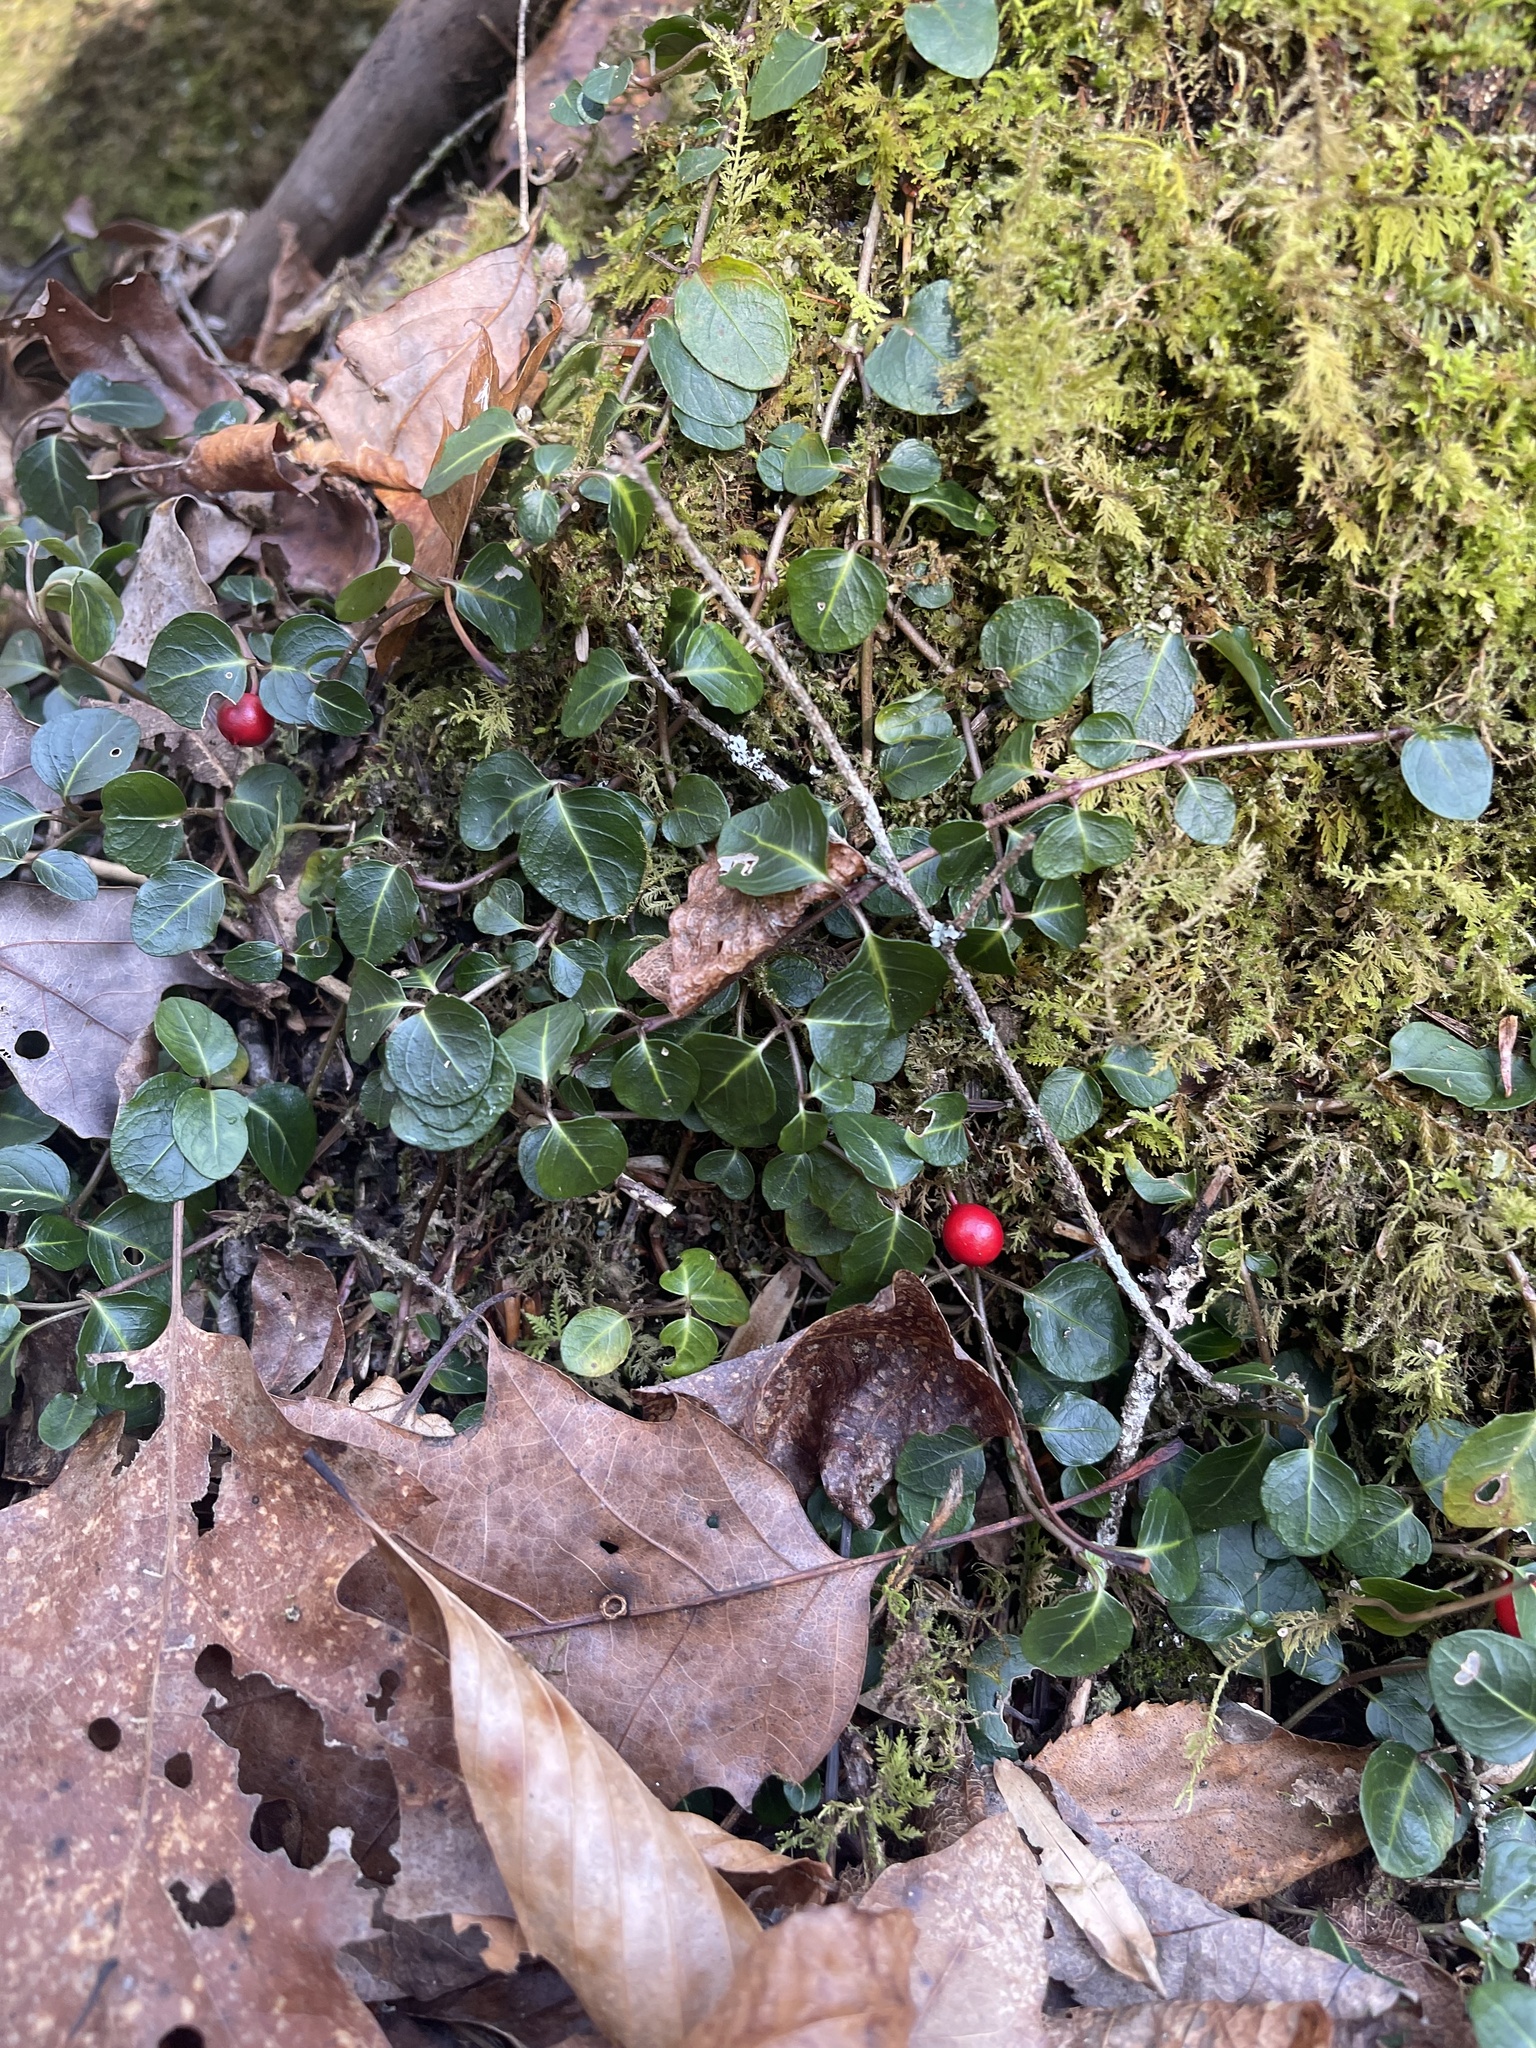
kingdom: Plantae
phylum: Tracheophyta
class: Magnoliopsida
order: Gentianales
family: Rubiaceae
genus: Mitchella
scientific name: Mitchella repens
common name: Partridge-berry
